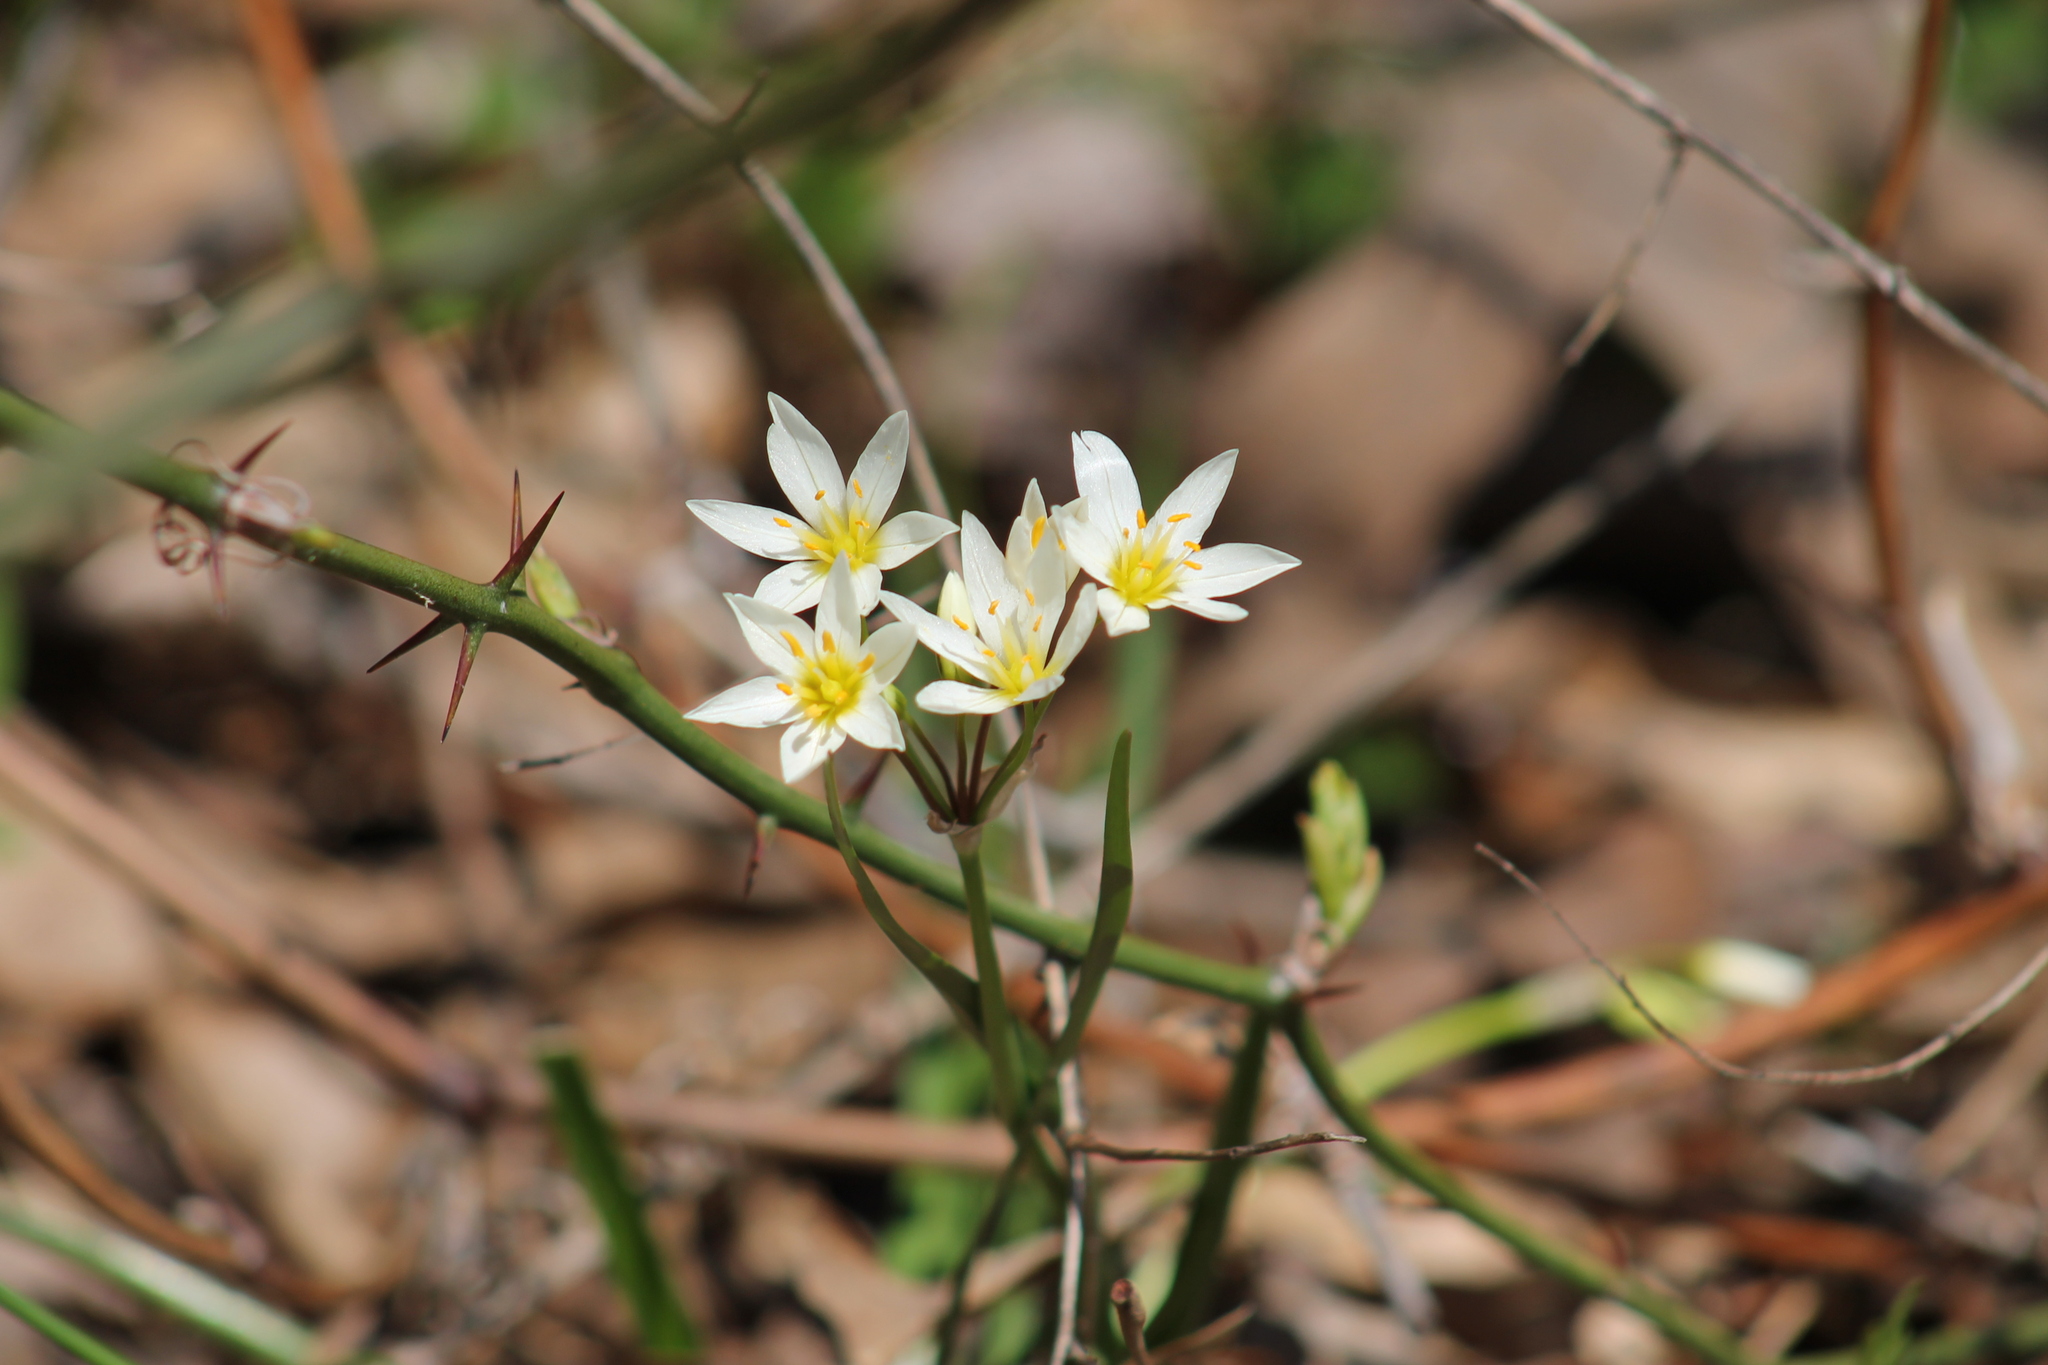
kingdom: Plantae
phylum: Tracheophyta
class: Liliopsida
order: Asparagales
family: Amaryllidaceae
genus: Nothoscordum
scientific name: Nothoscordum bivalve
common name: Crow-poison
